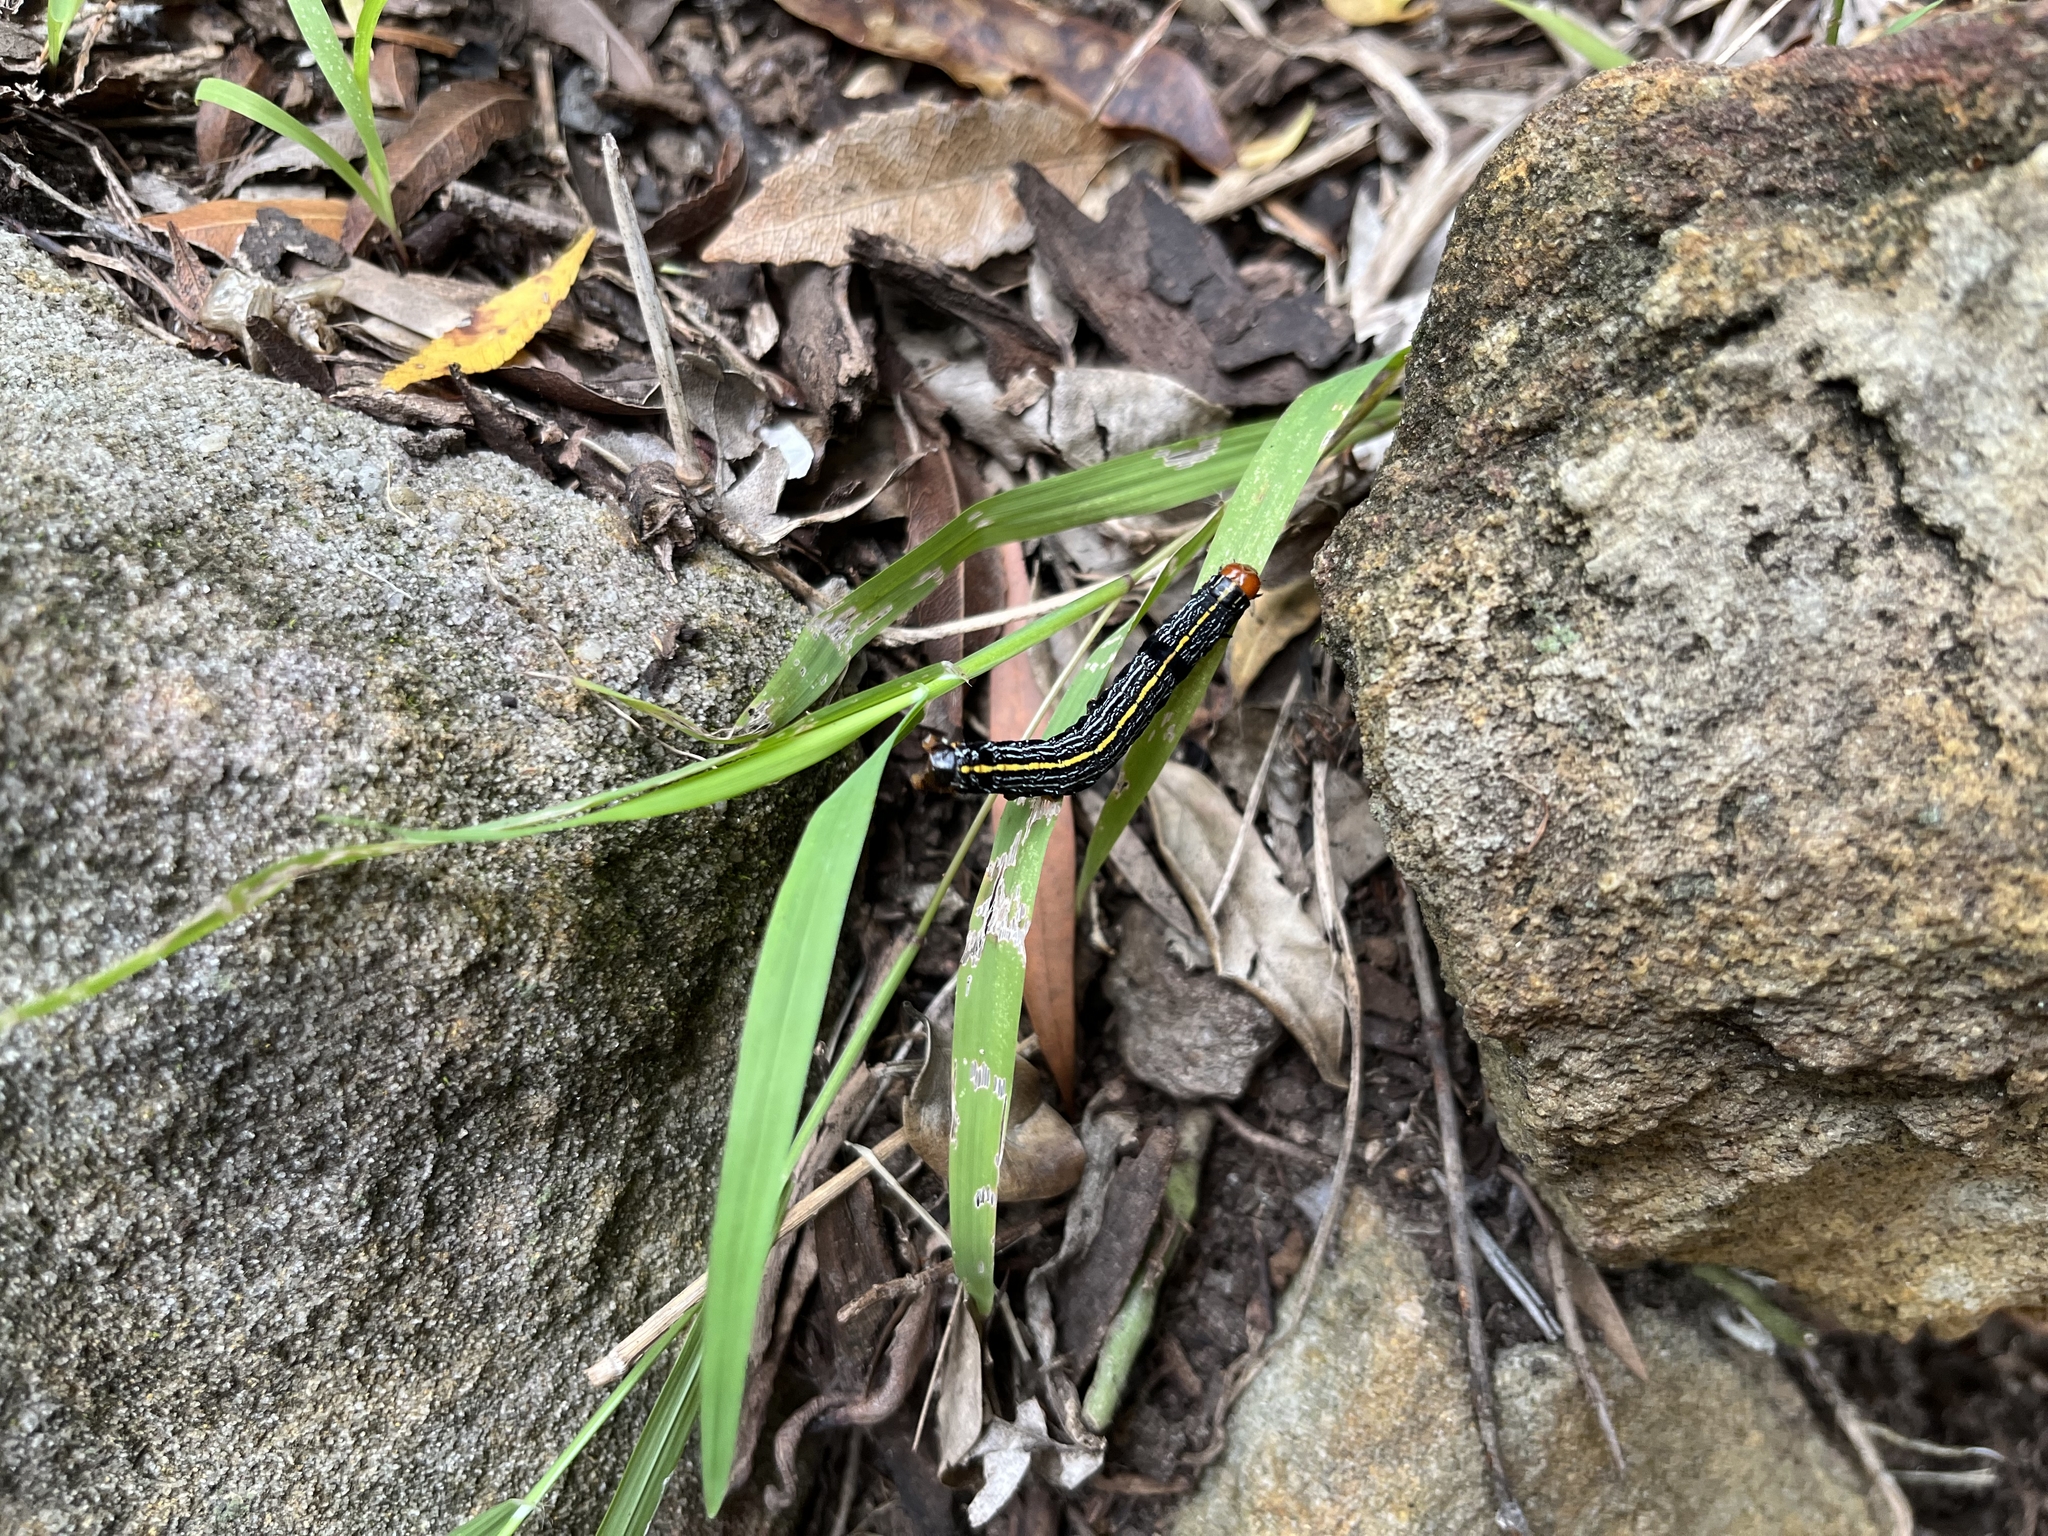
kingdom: Animalia
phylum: Arthropoda
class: Insecta
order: Lepidoptera
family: Noctuidae
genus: Spodoptera
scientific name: Spodoptera picta
